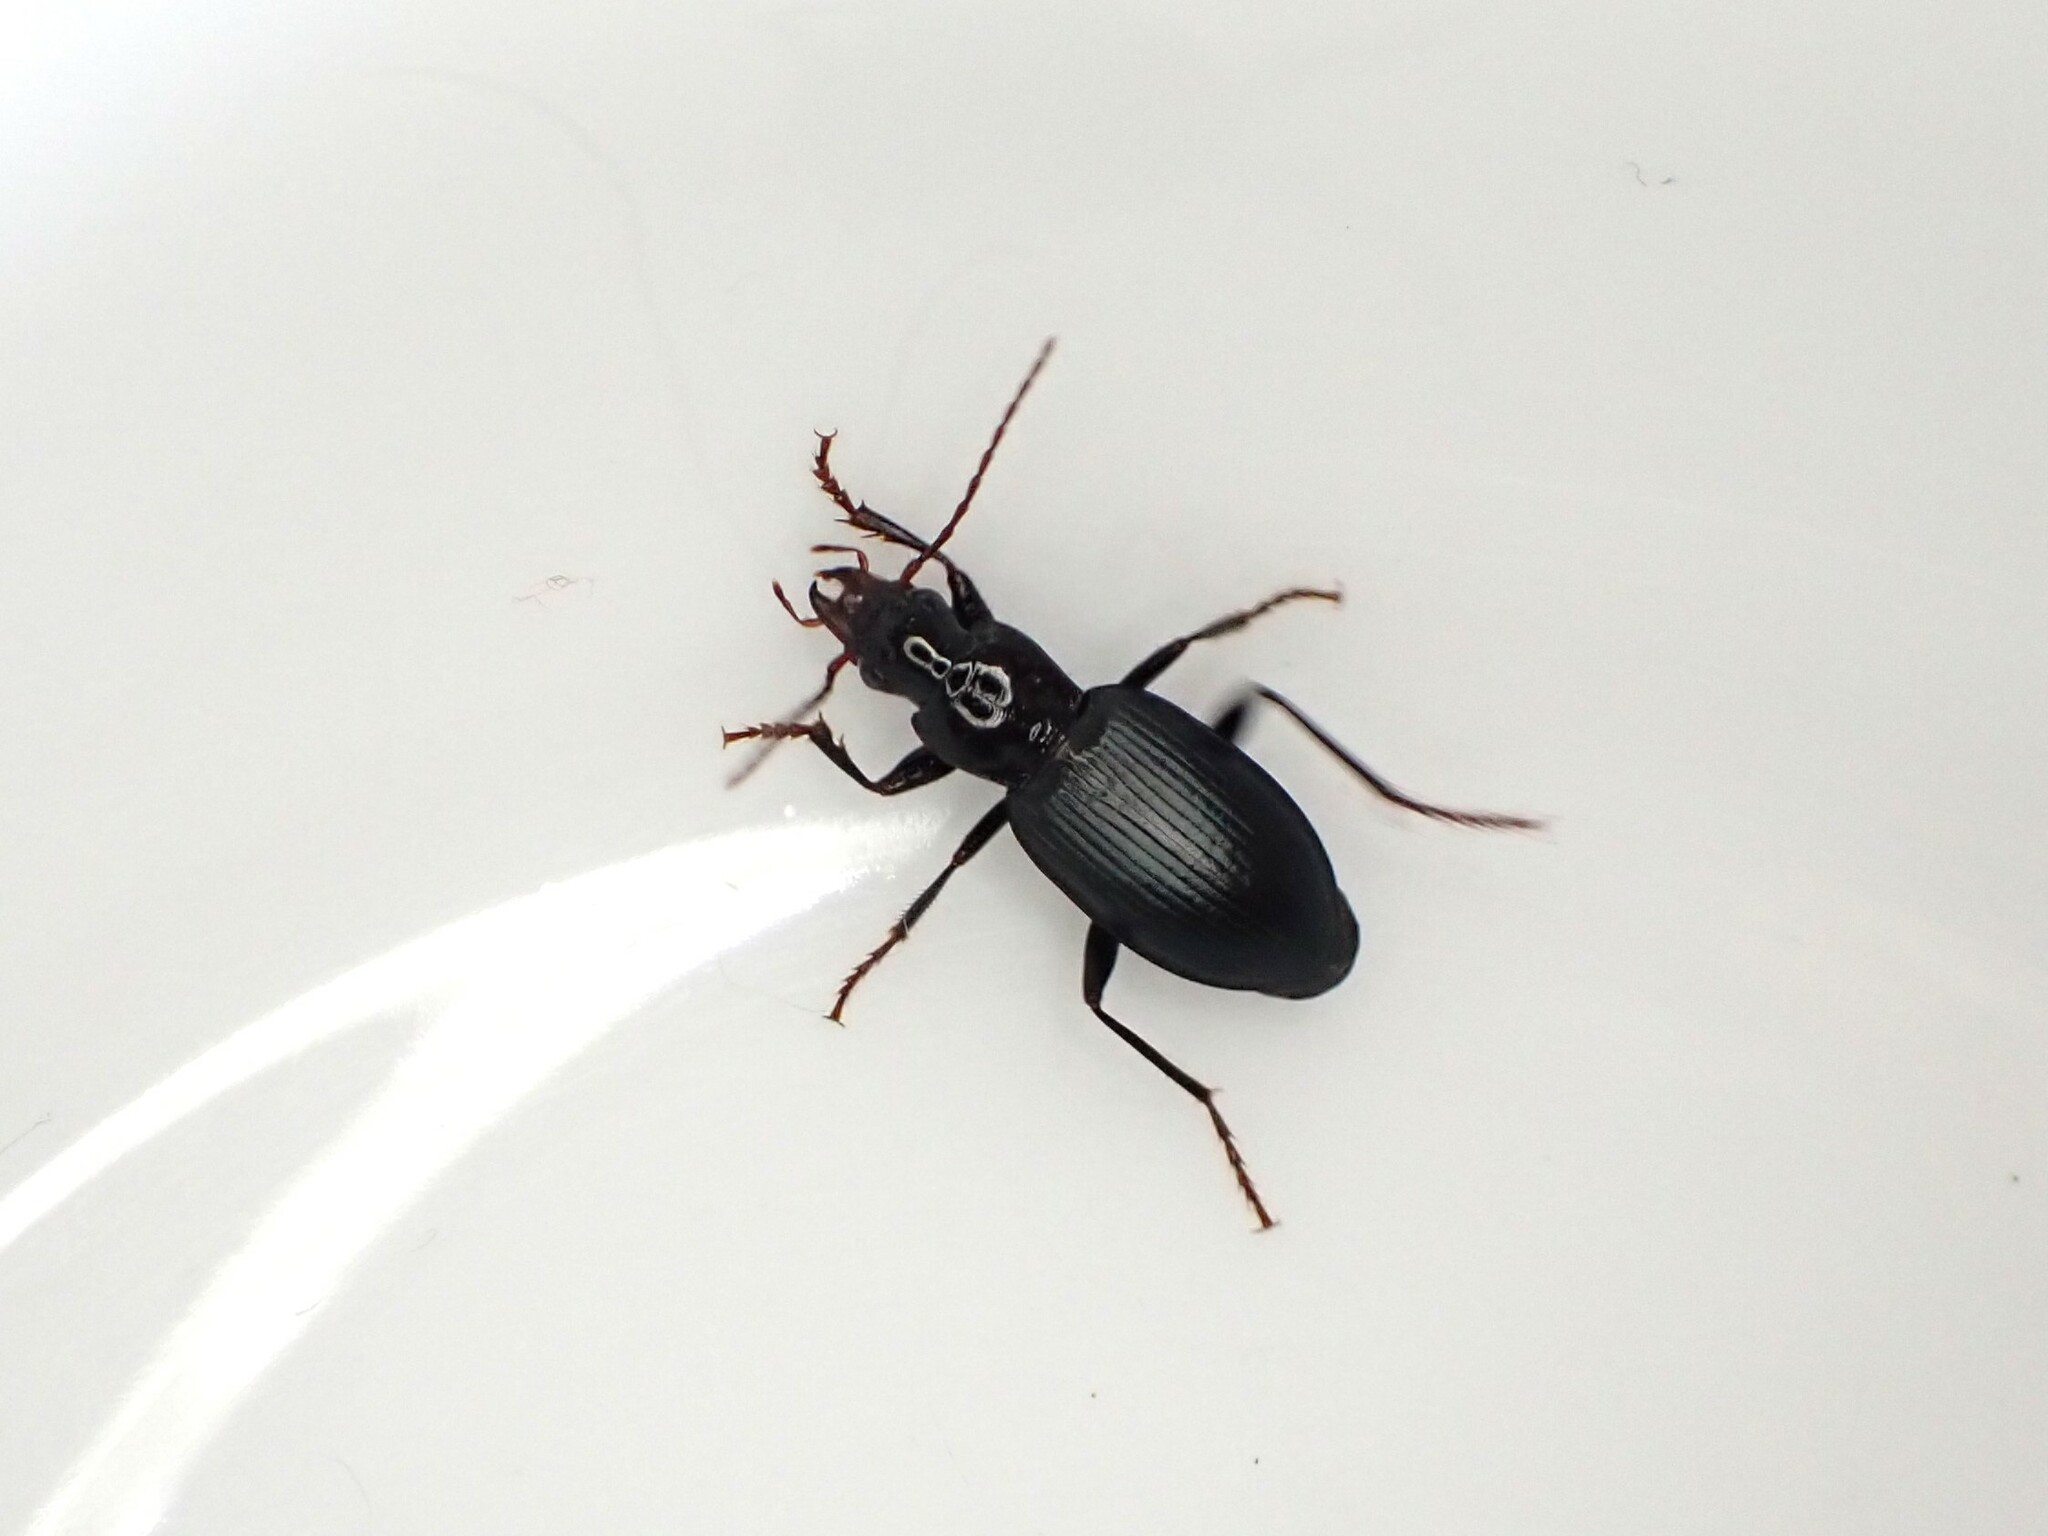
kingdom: Animalia
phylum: Arthropoda
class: Insecta
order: Coleoptera
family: Carabidae
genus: Laemostenus
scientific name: Laemostenus complanatus
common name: Cosmopolitan ground beetle
